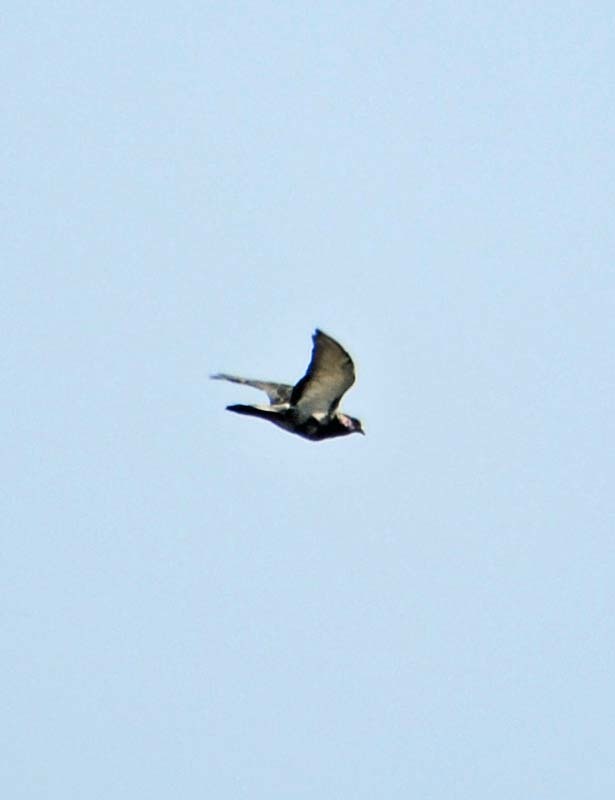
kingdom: Animalia
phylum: Chordata
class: Aves
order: Columbiformes
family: Columbidae
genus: Columba
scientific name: Columba livia
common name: Rock pigeon
